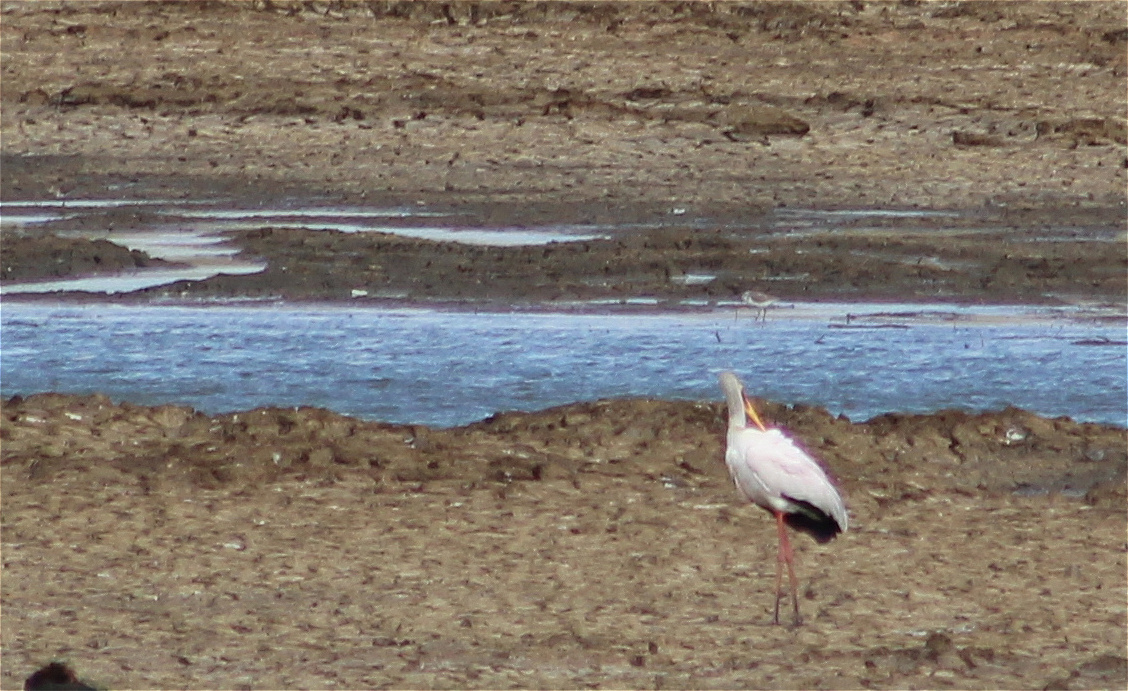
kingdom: Animalia
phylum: Chordata
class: Aves
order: Ciconiiformes
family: Ciconiidae
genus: Mycteria
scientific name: Mycteria ibis
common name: Yellow-billed stork
